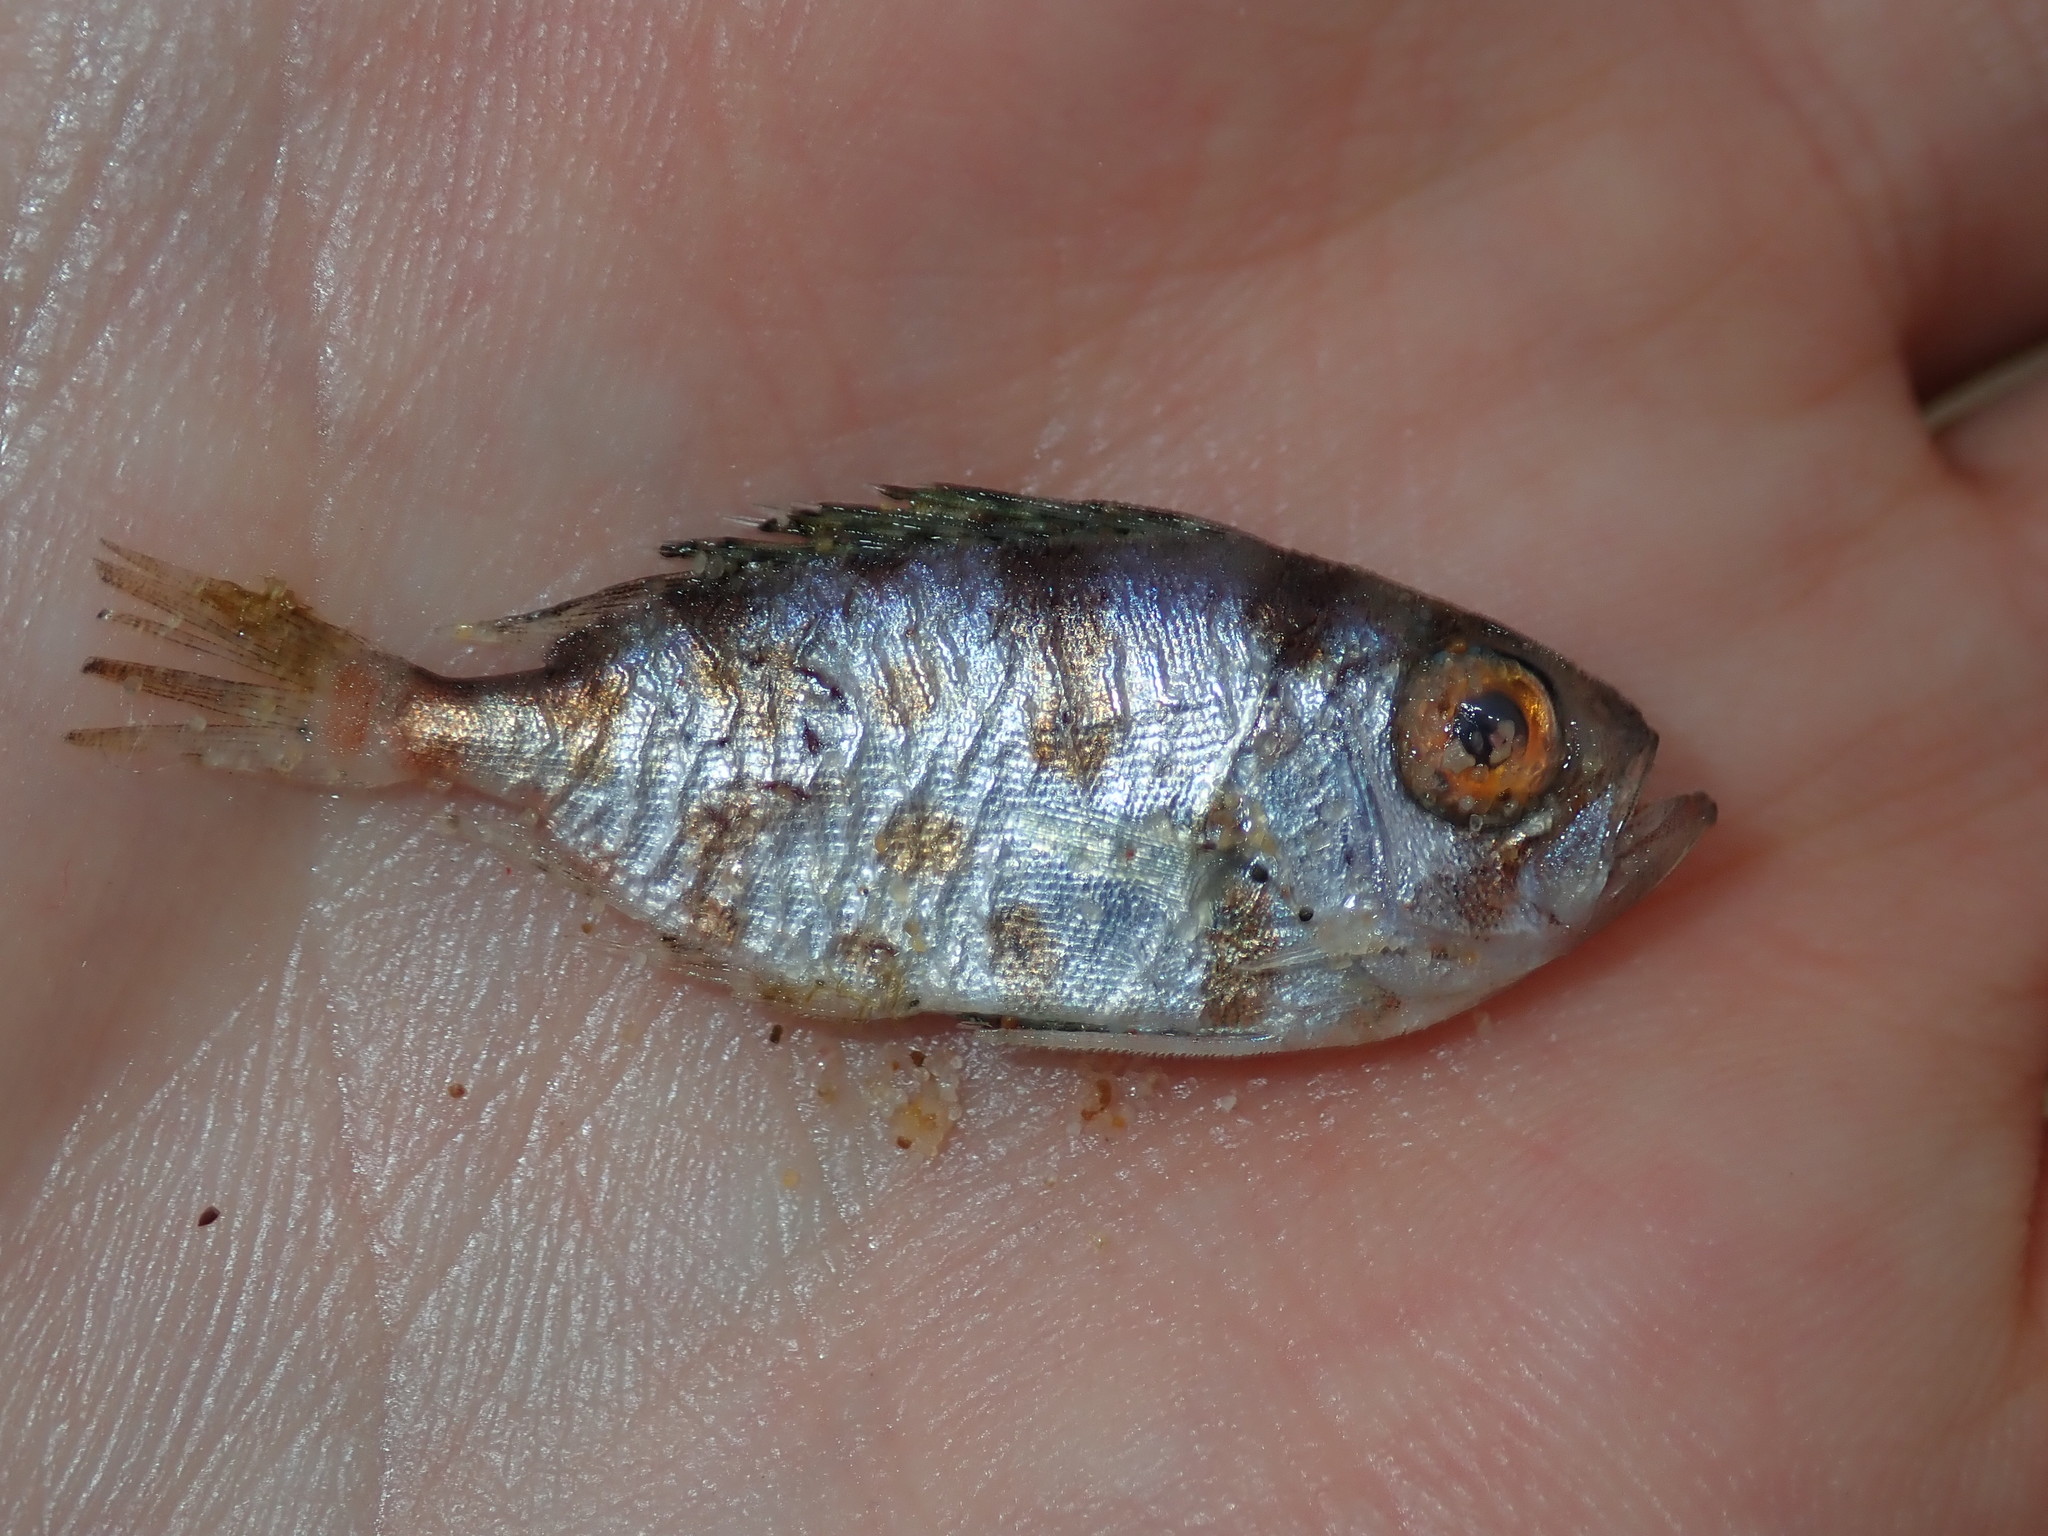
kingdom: Animalia
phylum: Chordata
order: Perciformes
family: Priacanthidae
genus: Priacanthus
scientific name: Priacanthus macracanthus
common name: Red bigeye
